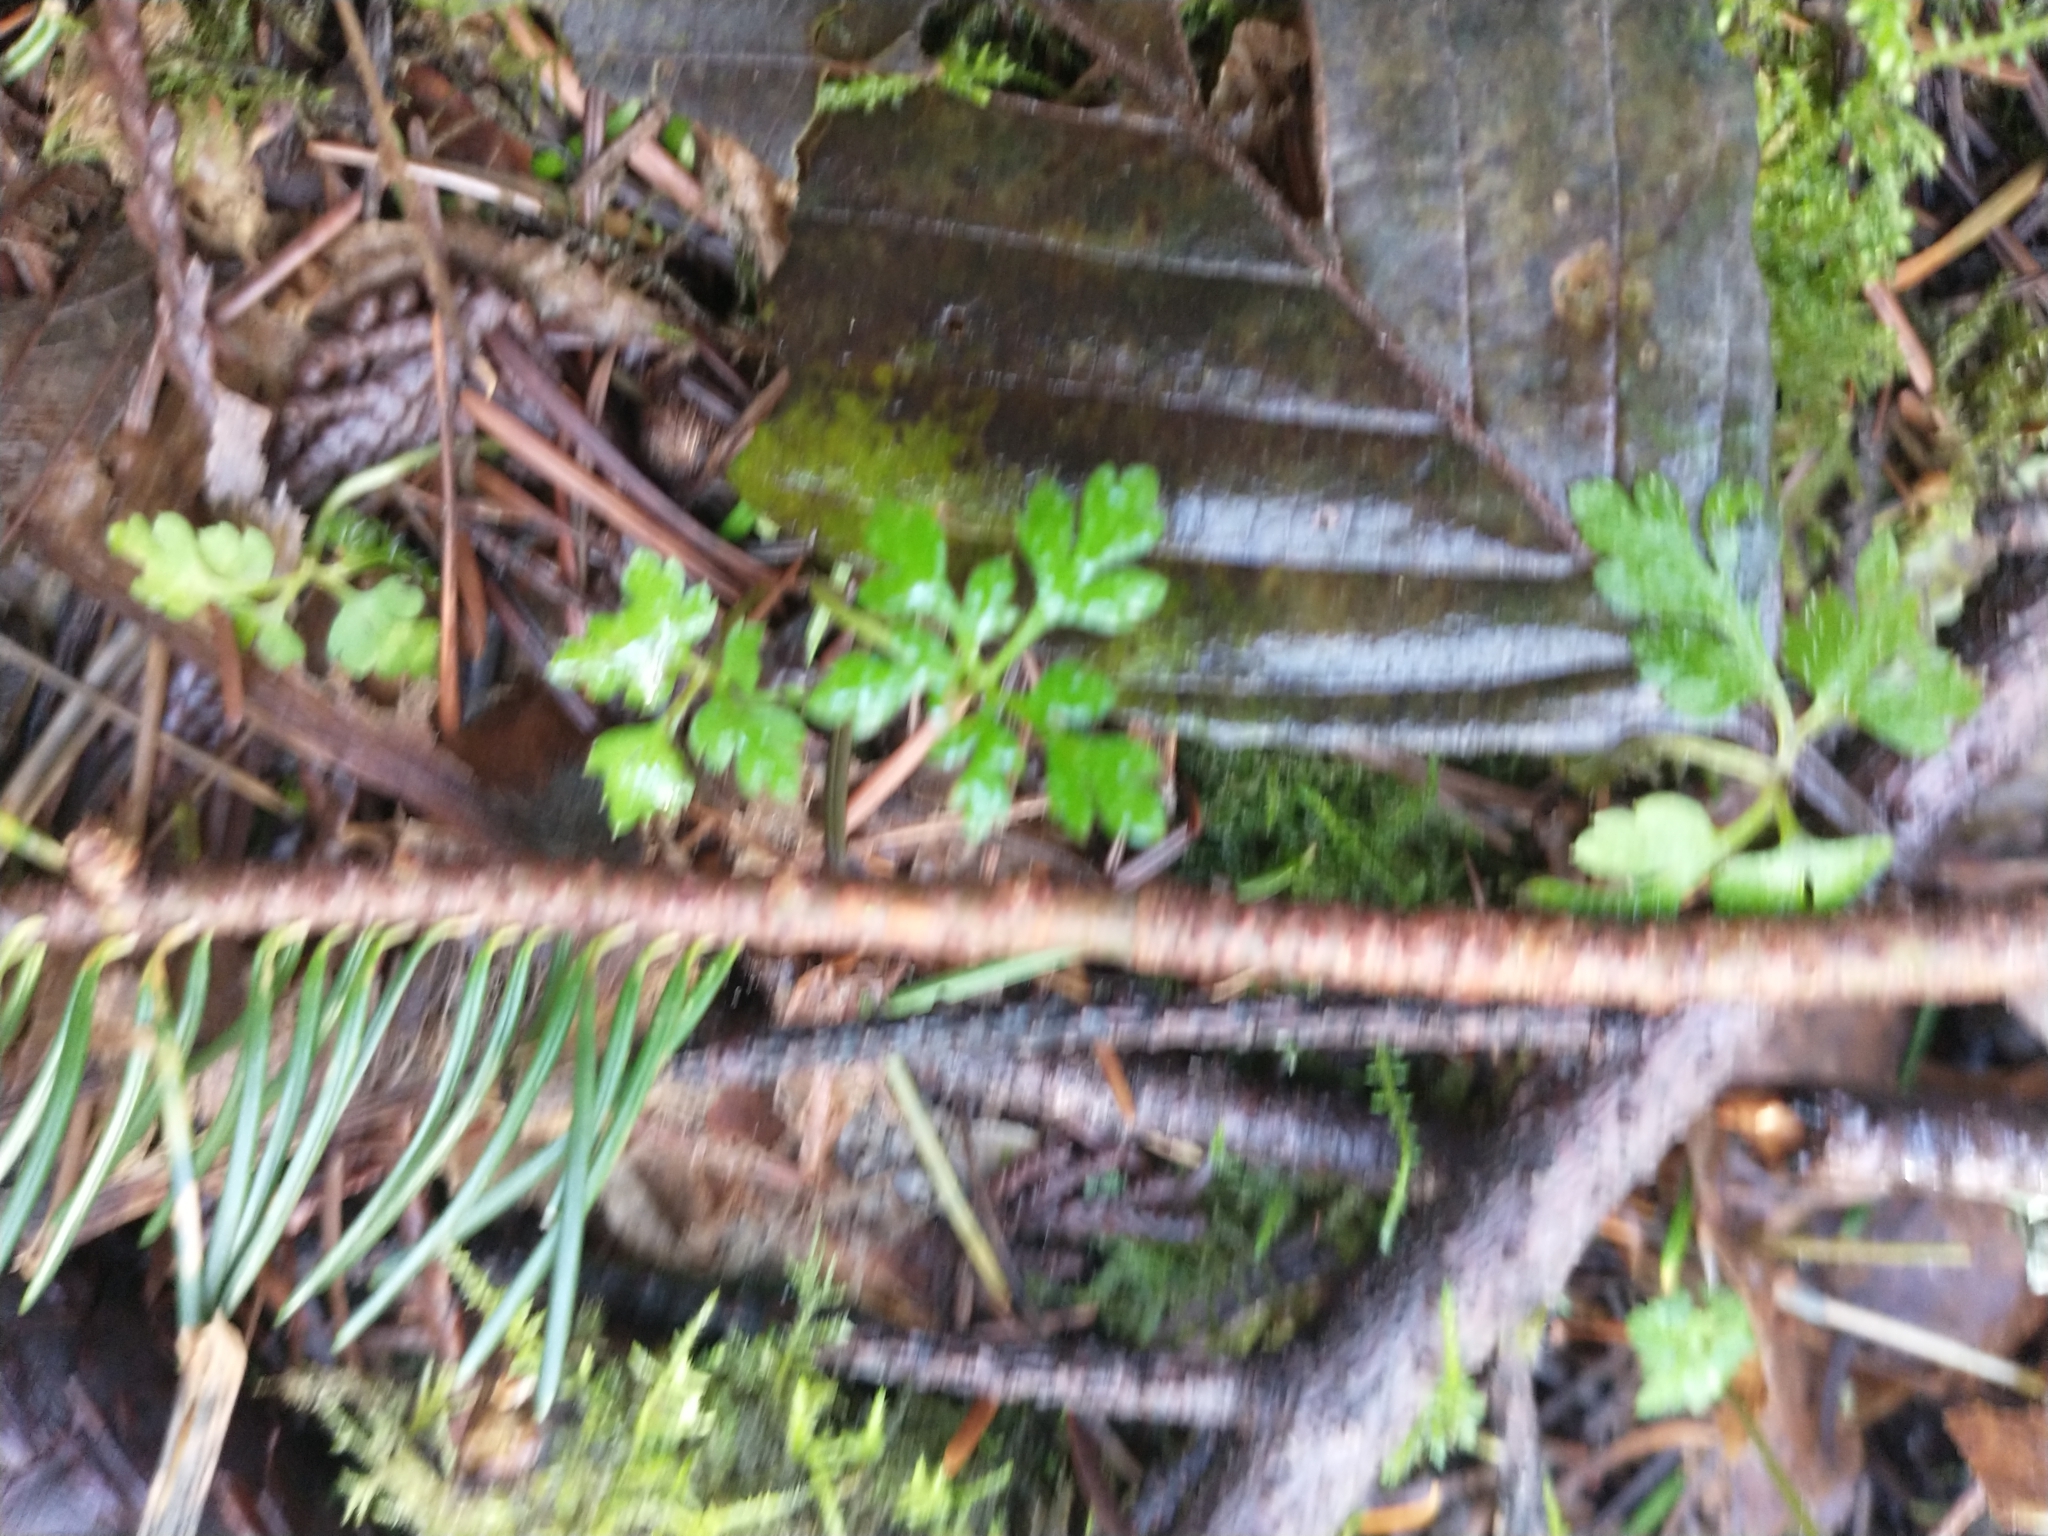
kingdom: Plantae
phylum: Tracheophyta
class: Magnoliopsida
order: Geraniales
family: Geraniaceae
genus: Geranium
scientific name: Geranium robertianum
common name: Herb-robert
